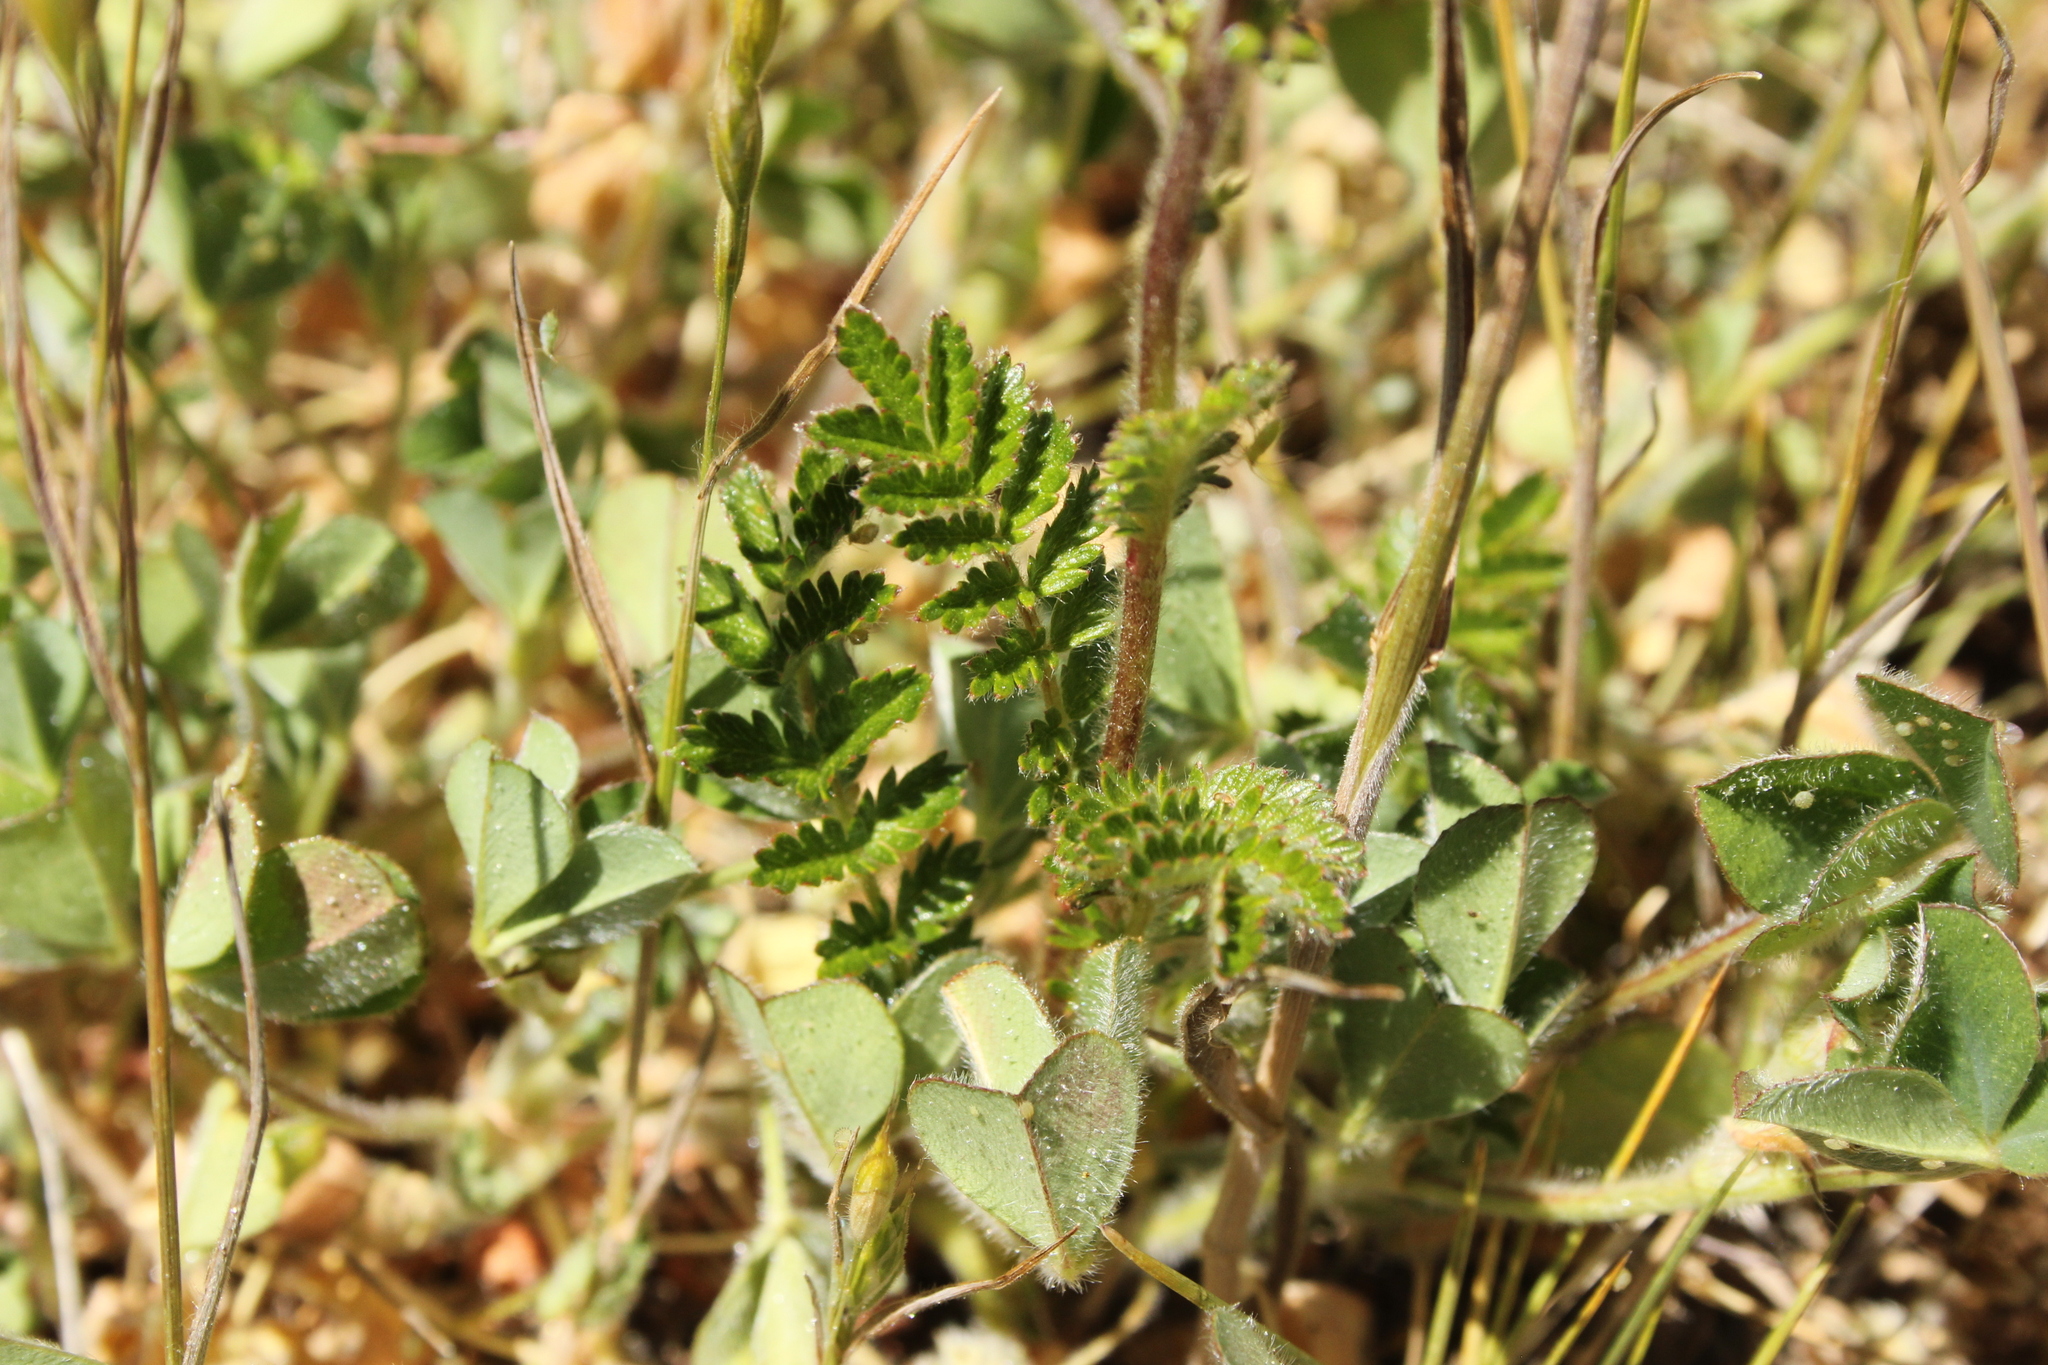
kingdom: Plantae
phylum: Tracheophyta
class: Magnoliopsida
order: Rosales
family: Rosaceae
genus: Acaena
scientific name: Acaena agnipila
